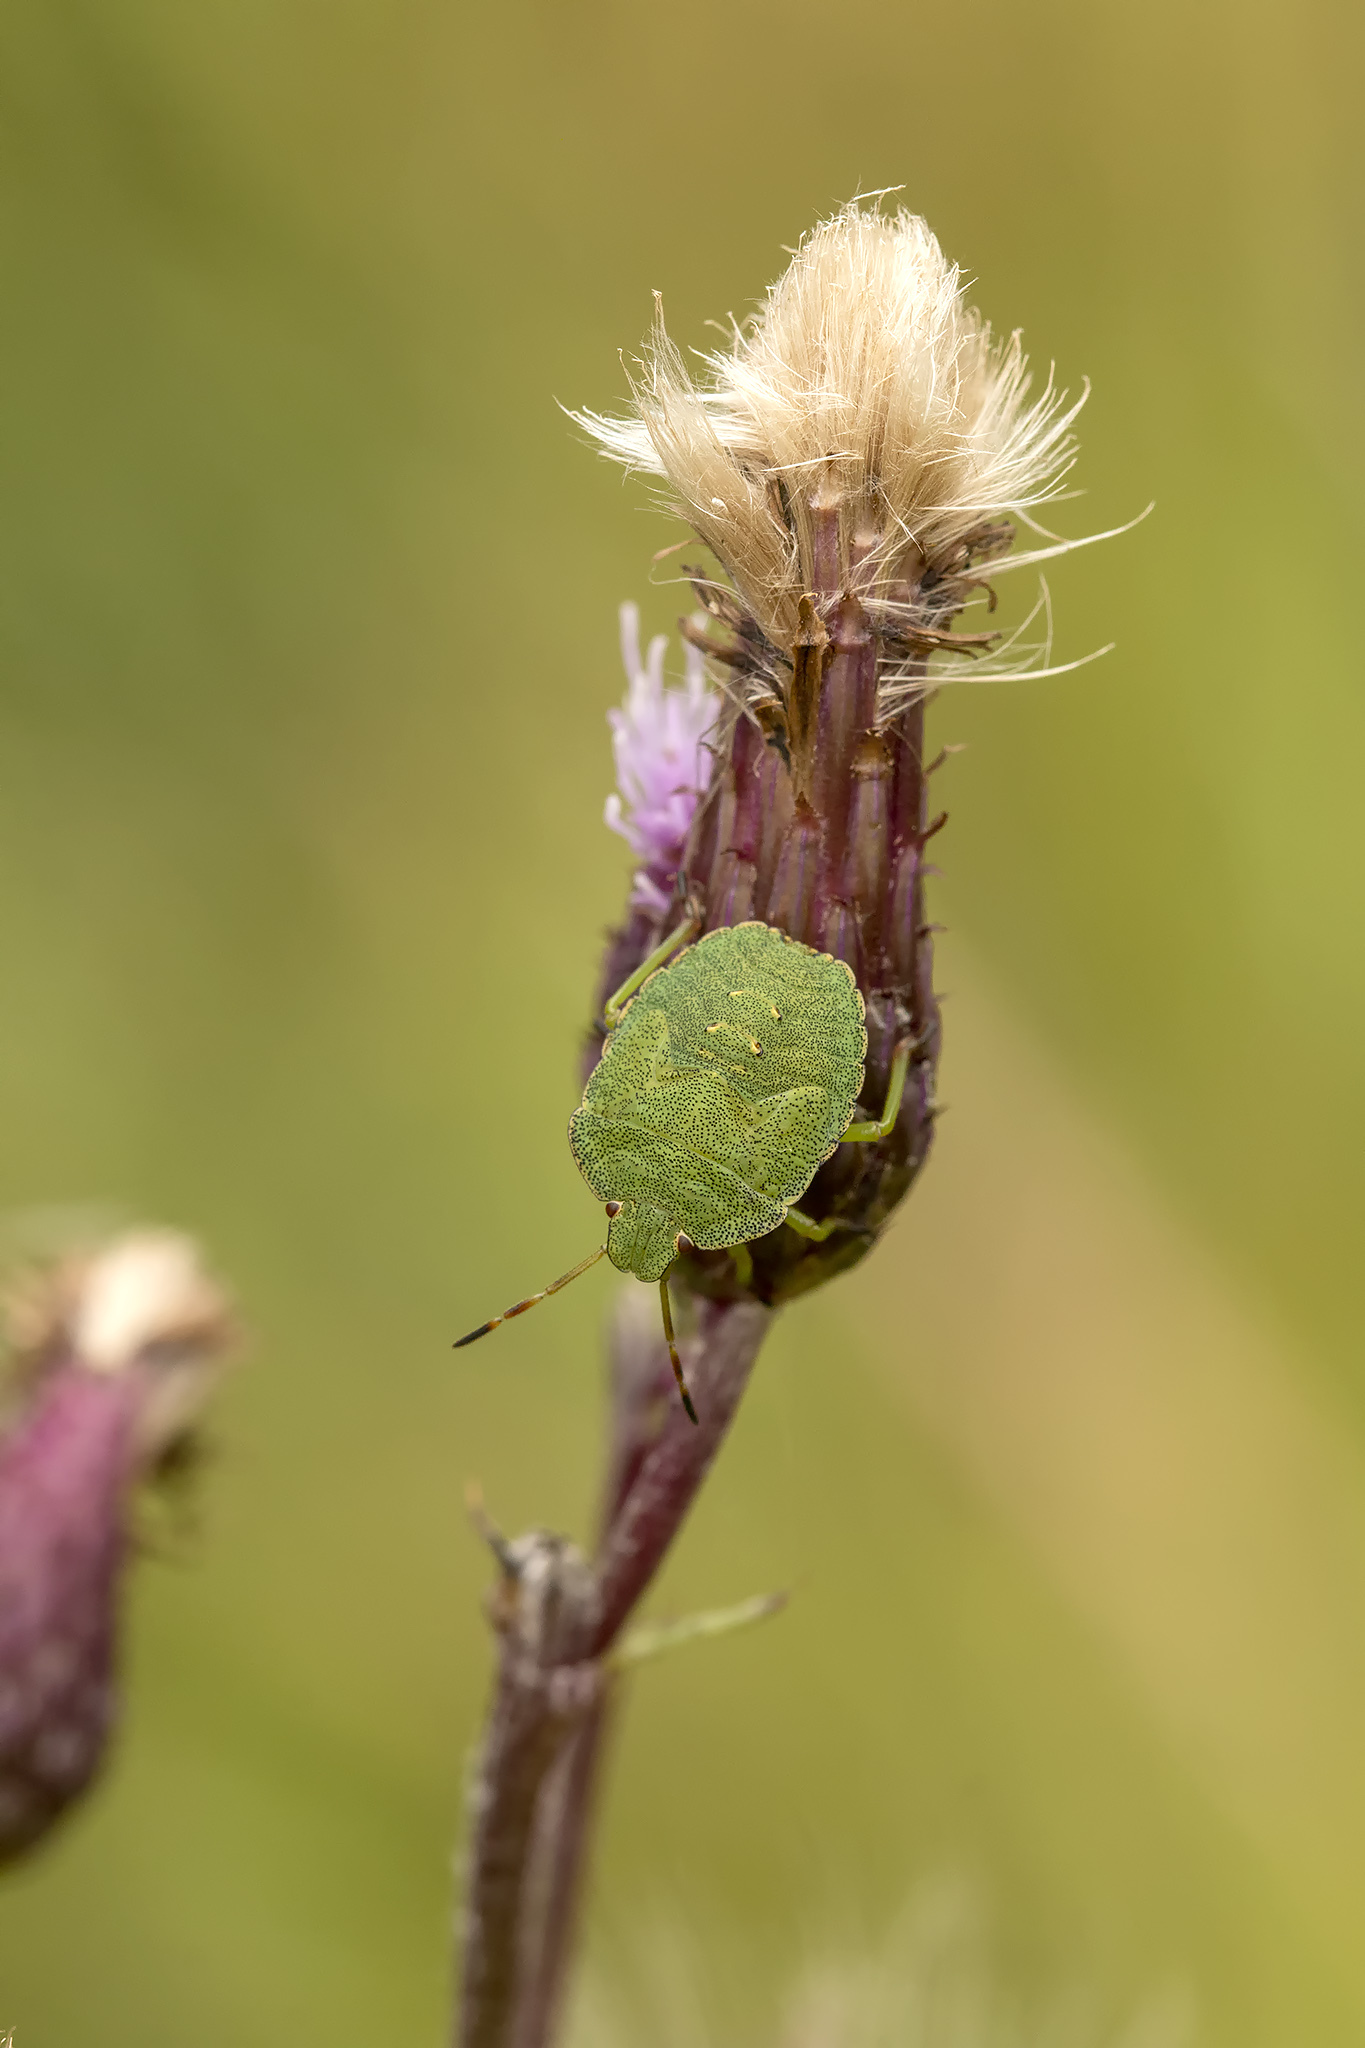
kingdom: Animalia
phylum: Arthropoda
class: Insecta
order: Hemiptera
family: Pentatomidae
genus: Palomena
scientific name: Palomena prasina
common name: Green shieldbug
